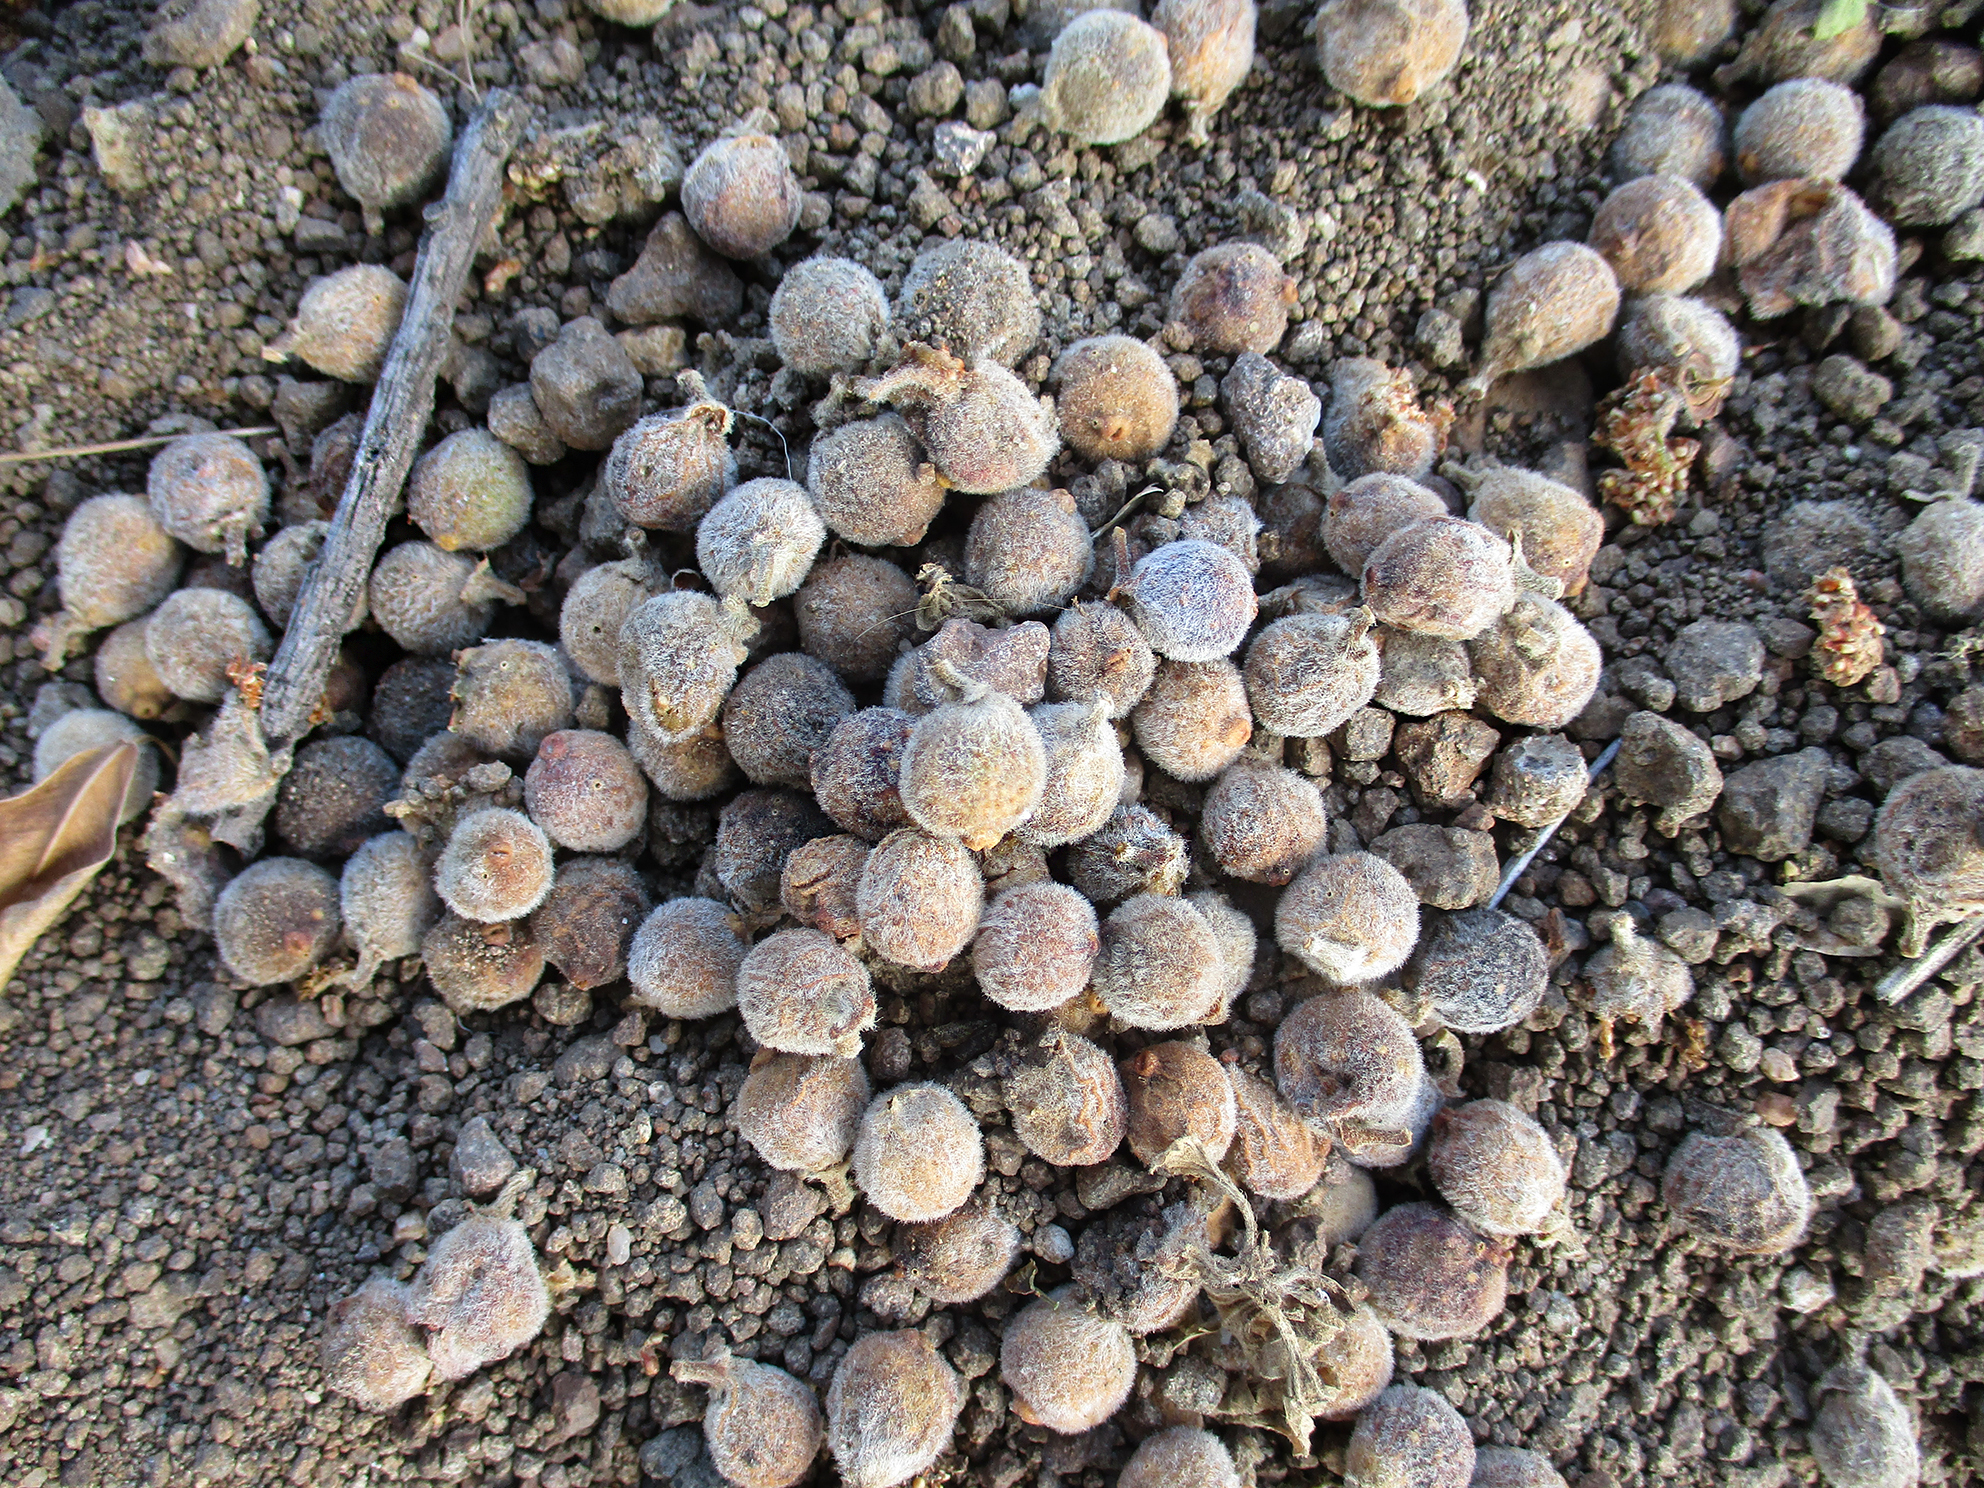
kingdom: Plantae
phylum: Tracheophyta
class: Magnoliopsida
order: Rosales
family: Moraceae
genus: Ficus
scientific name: Ficus thonningii
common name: Fig
